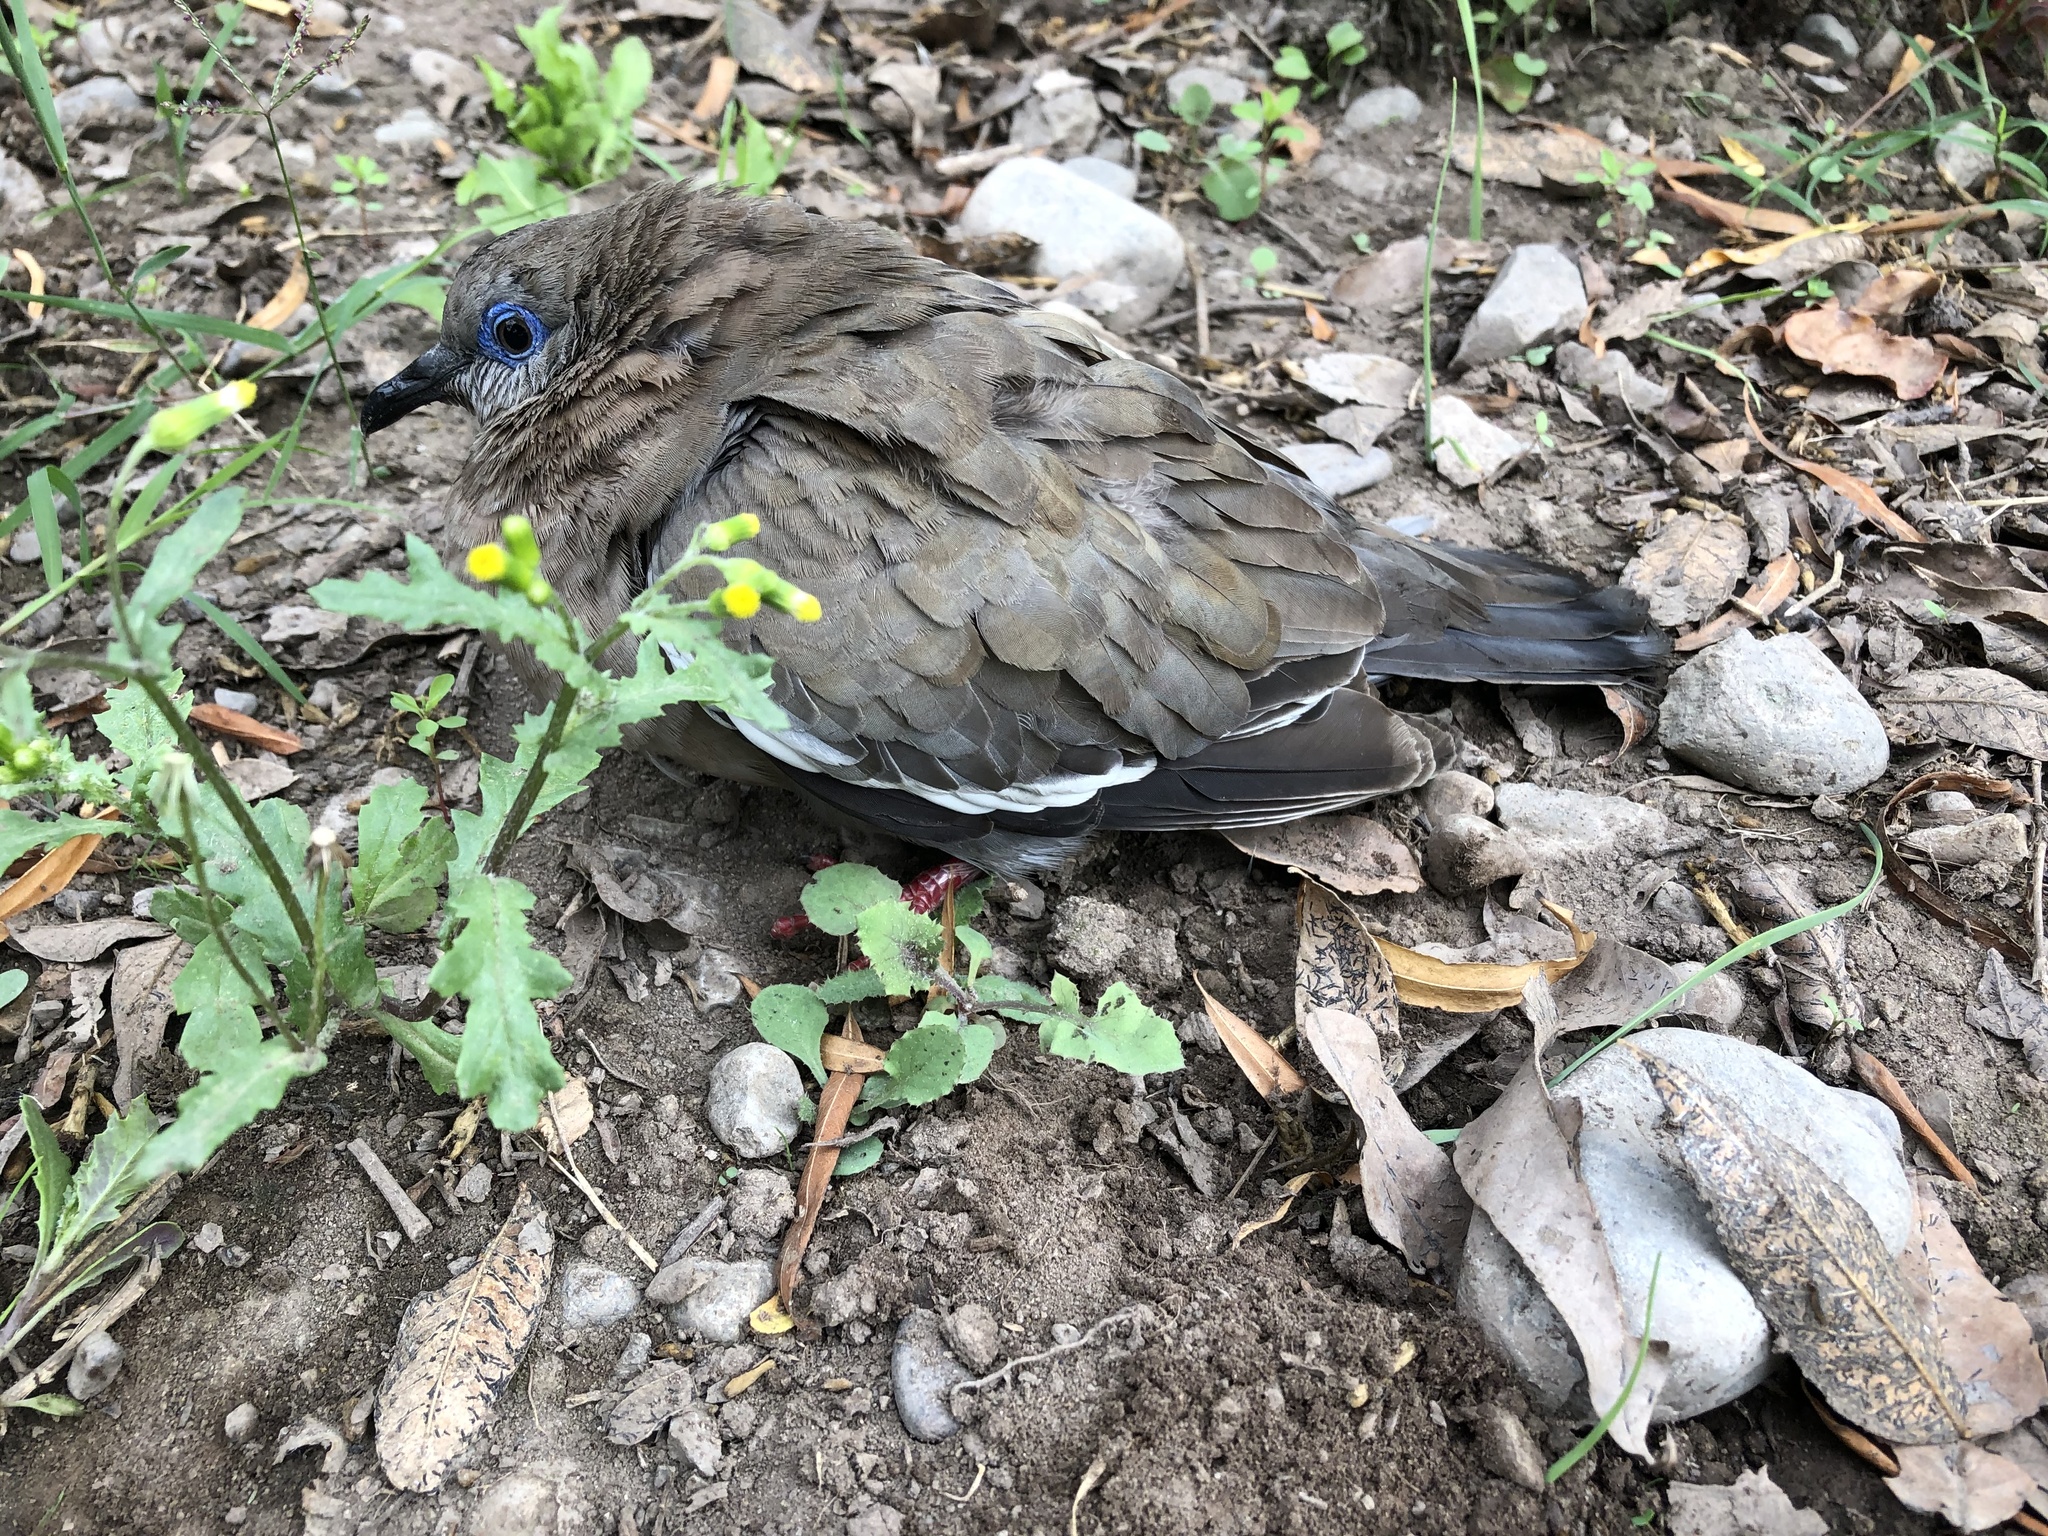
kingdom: Animalia
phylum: Chordata
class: Aves
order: Columbiformes
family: Columbidae
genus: Zenaida
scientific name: Zenaida meloda
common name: West peruvian dove
